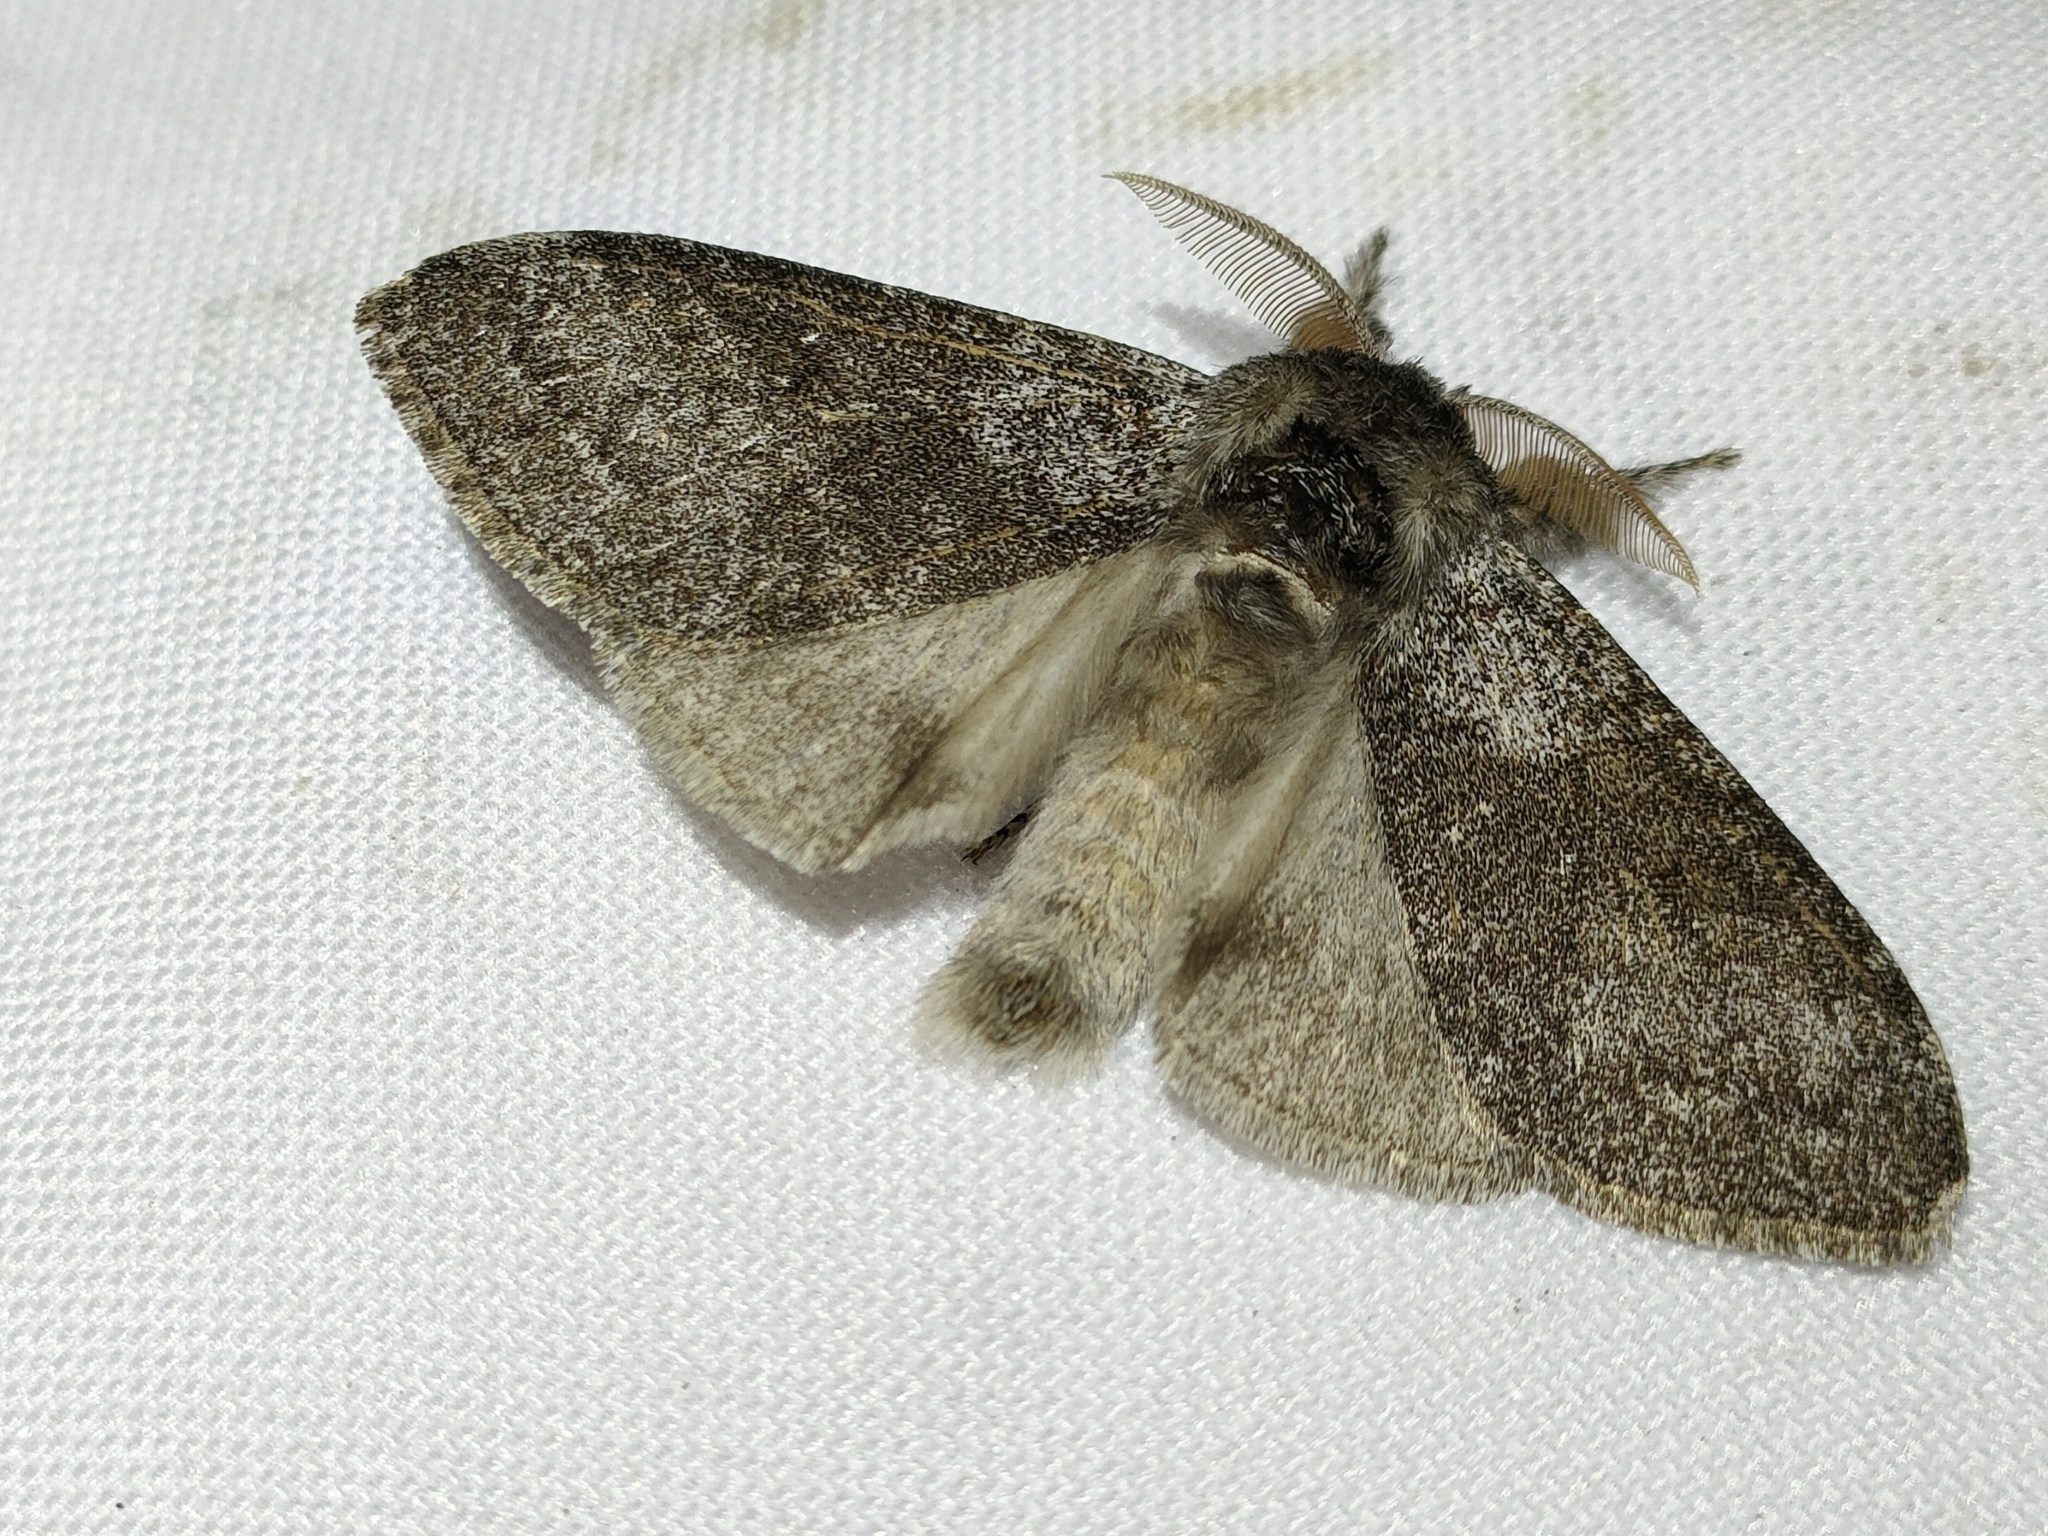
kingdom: Animalia
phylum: Arthropoda
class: Insecta
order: Lepidoptera
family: Erebidae
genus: Calliteara
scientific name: Calliteara pudibunda
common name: Pale tussock
